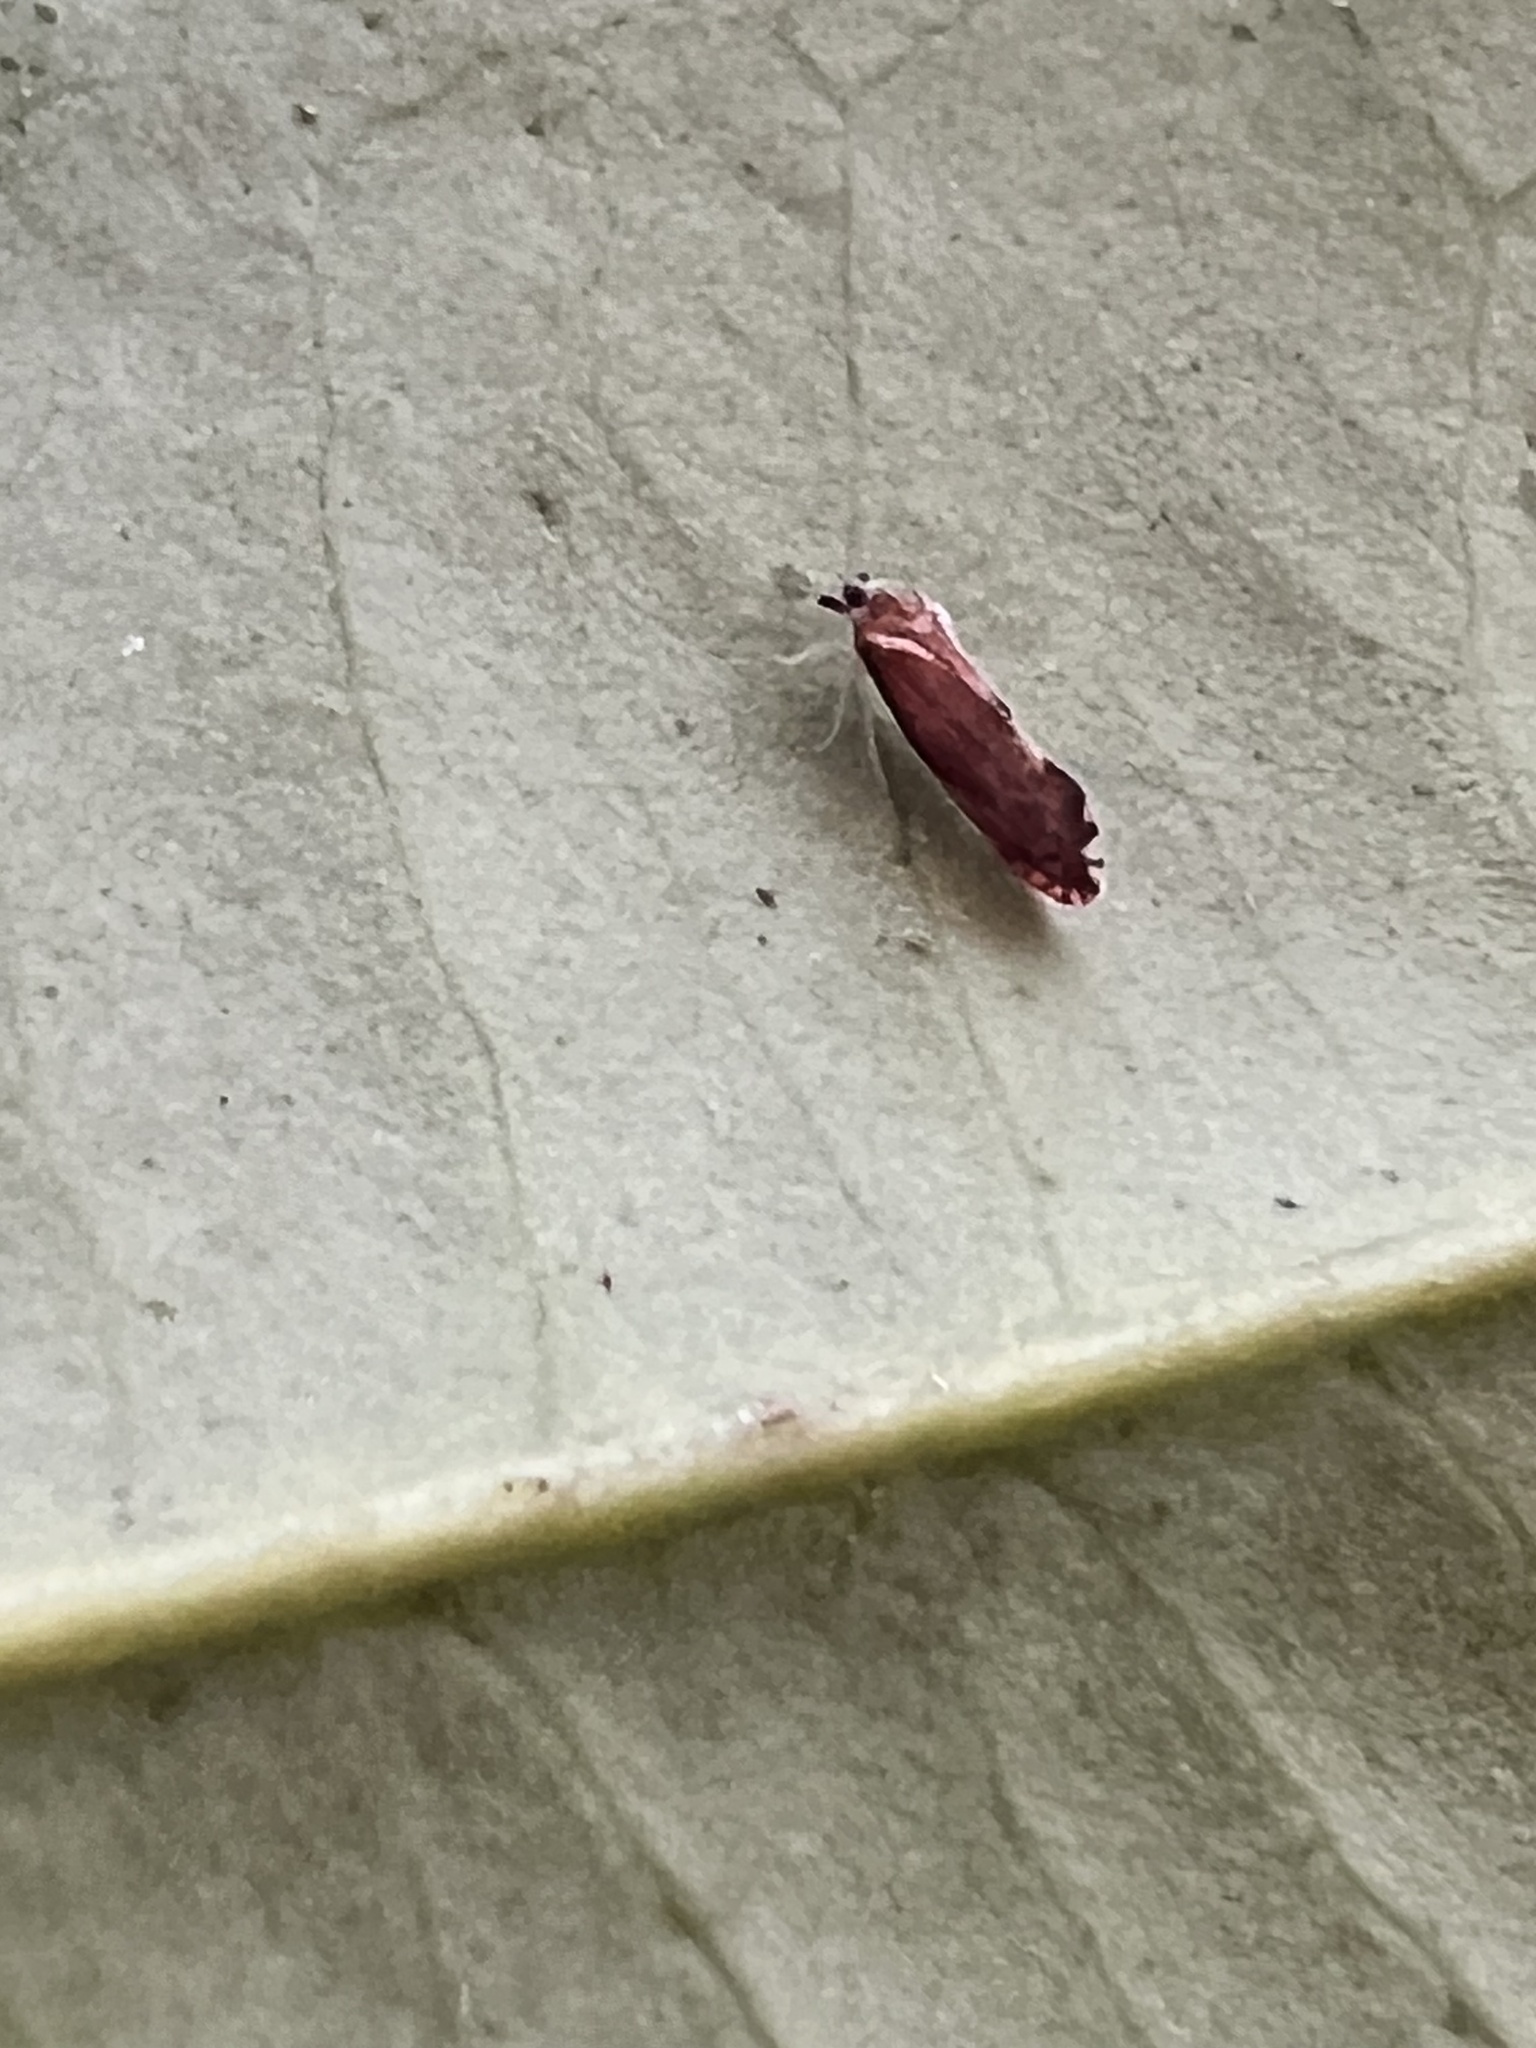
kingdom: Animalia
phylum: Arthropoda
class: Insecta
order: Hemiptera
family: Derbidae
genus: Patara
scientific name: Patara vanduzei
